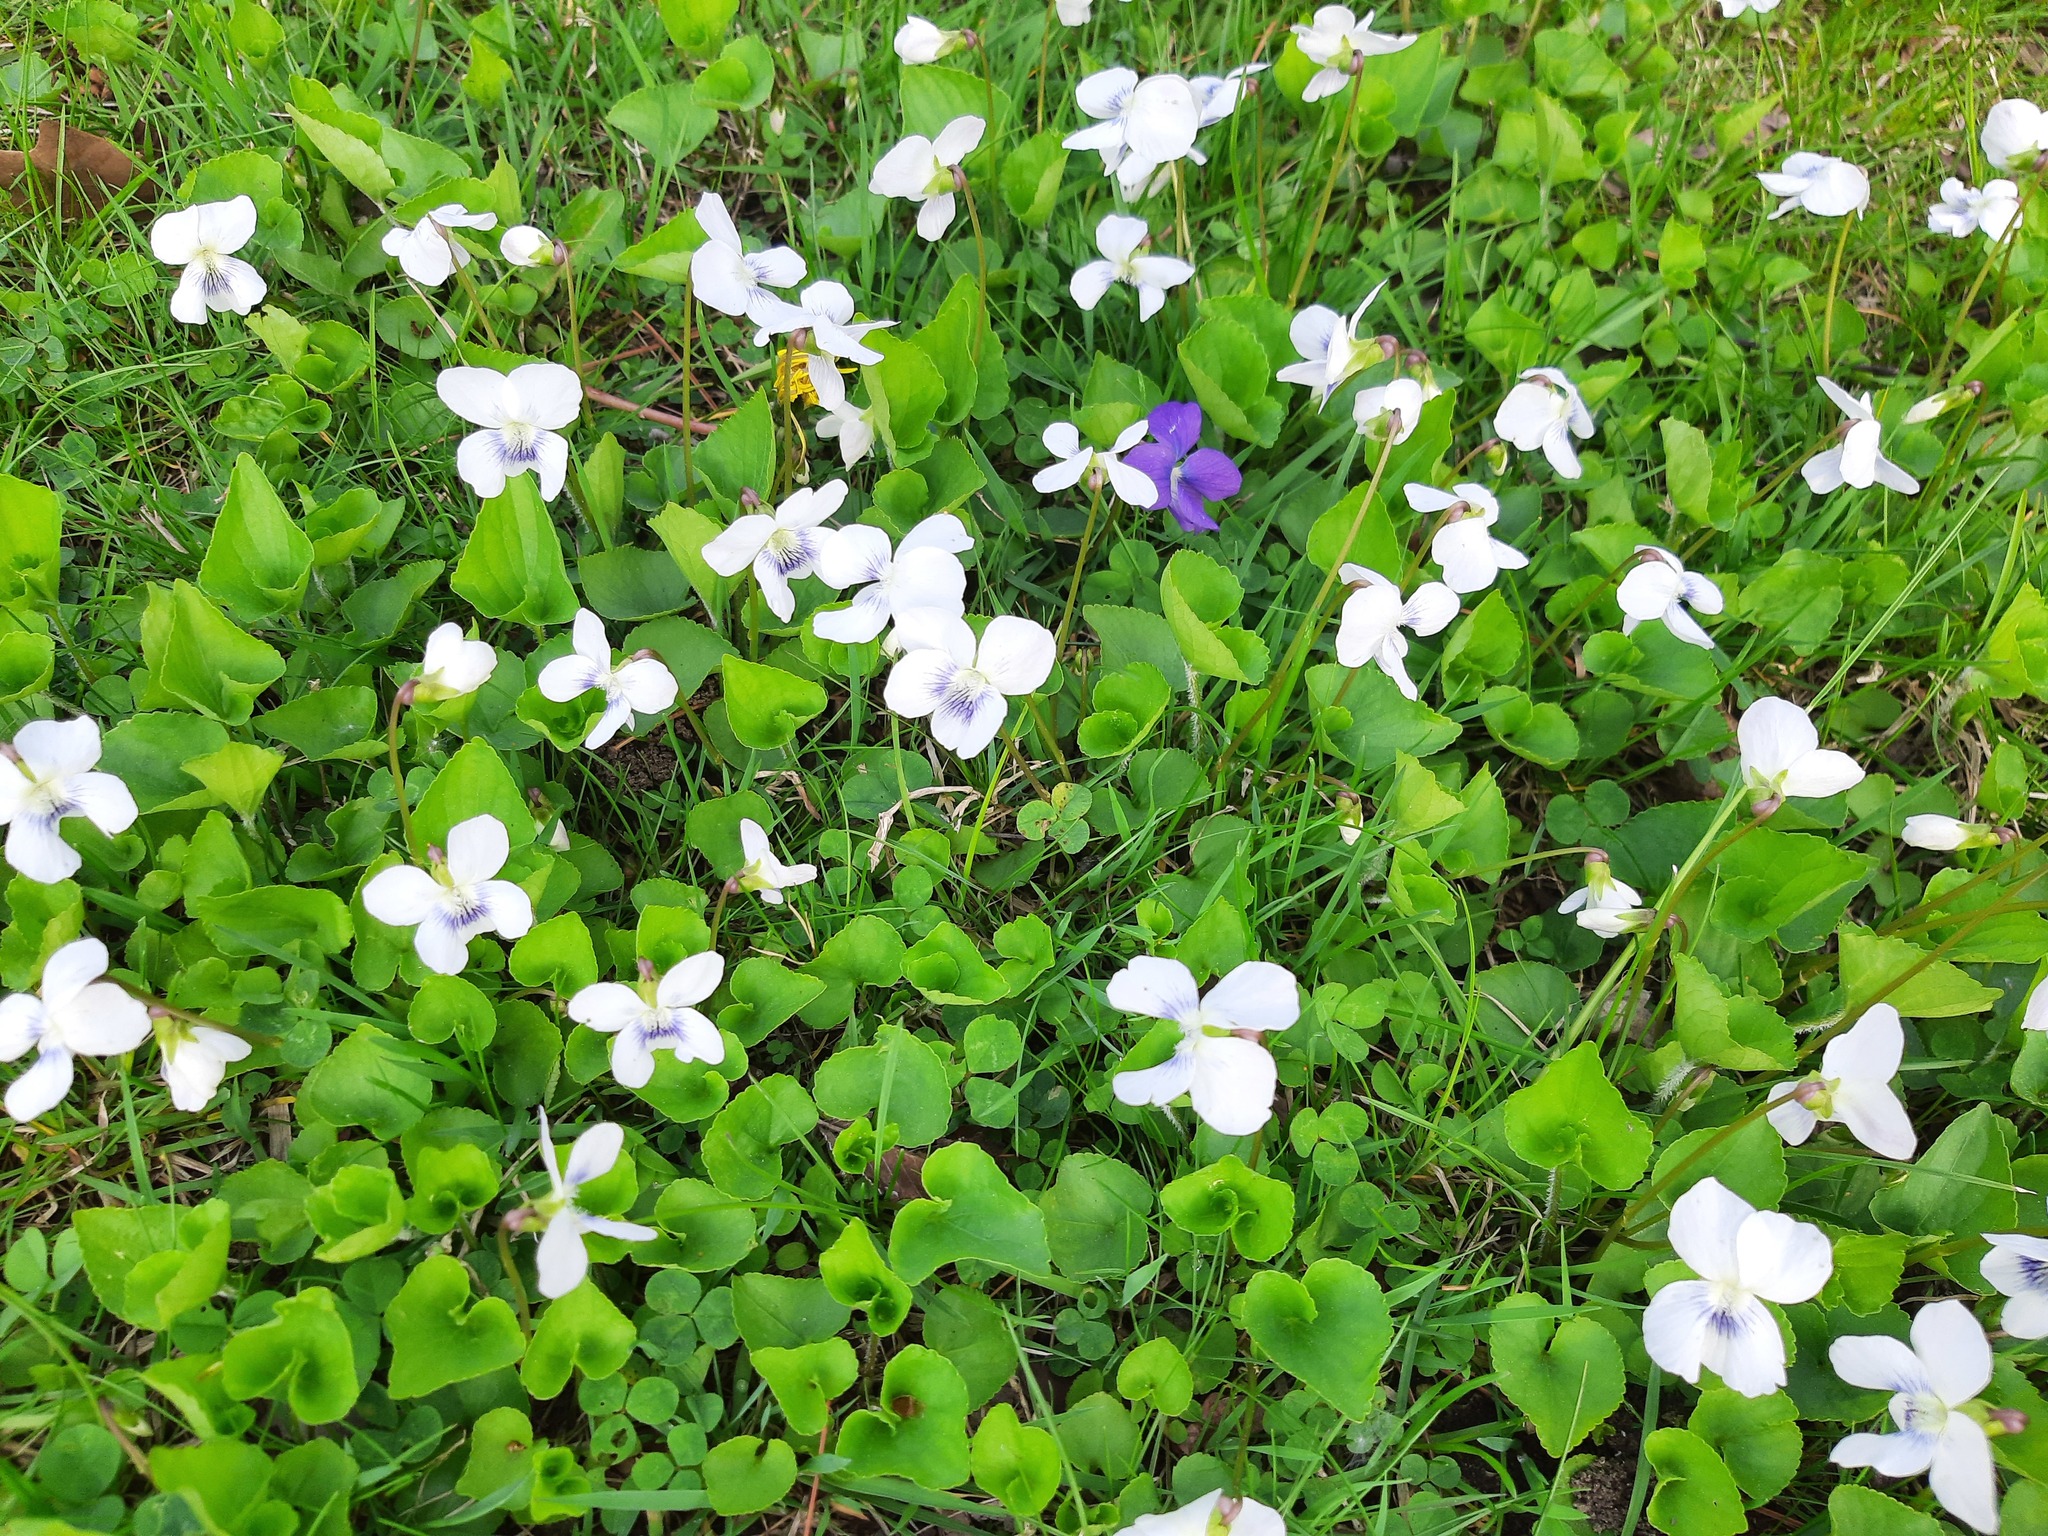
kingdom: Plantae
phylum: Tracheophyta
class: Magnoliopsida
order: Malpighiales
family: Violaceae
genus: Viola
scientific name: Viola sororia
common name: Dooryard violet
